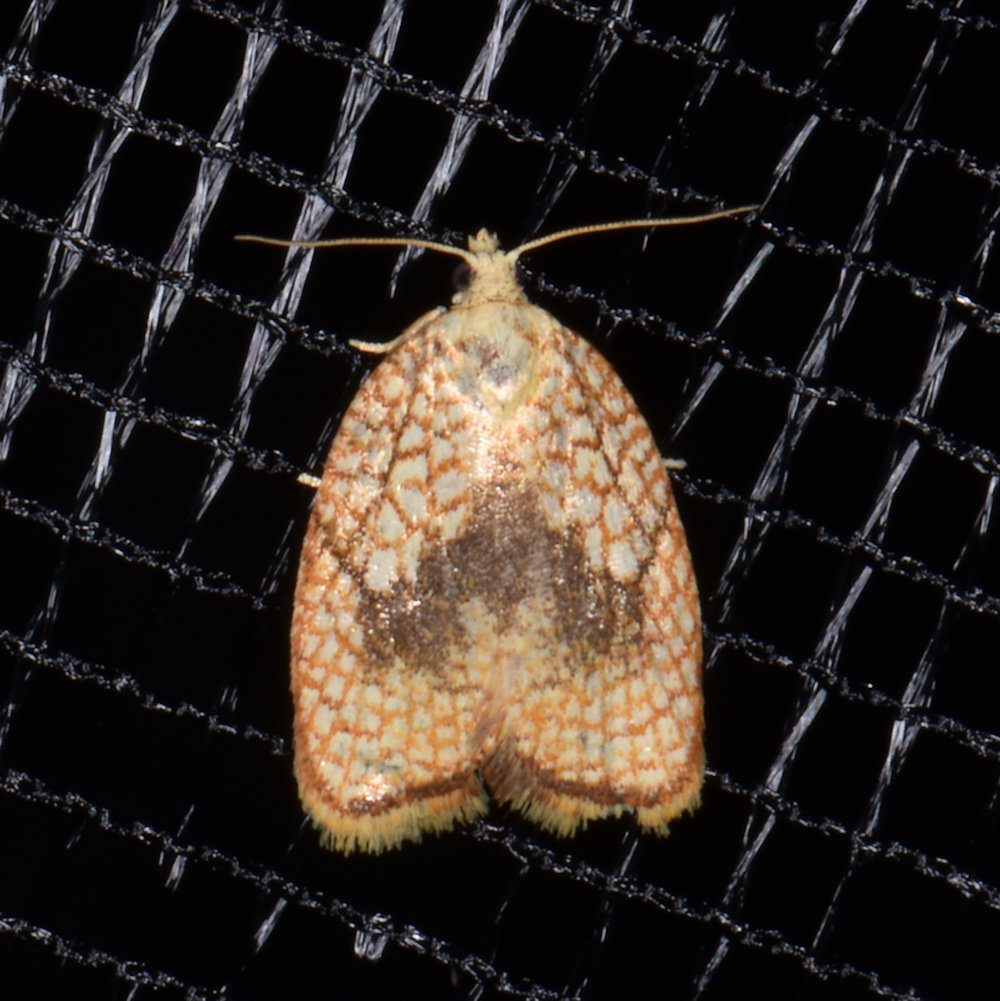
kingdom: Animalia
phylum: Arthropoda
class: Insecta
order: Lepidoptera
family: Tortricidae
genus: Acleris
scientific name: Acleris forsskaleana
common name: Maple button
